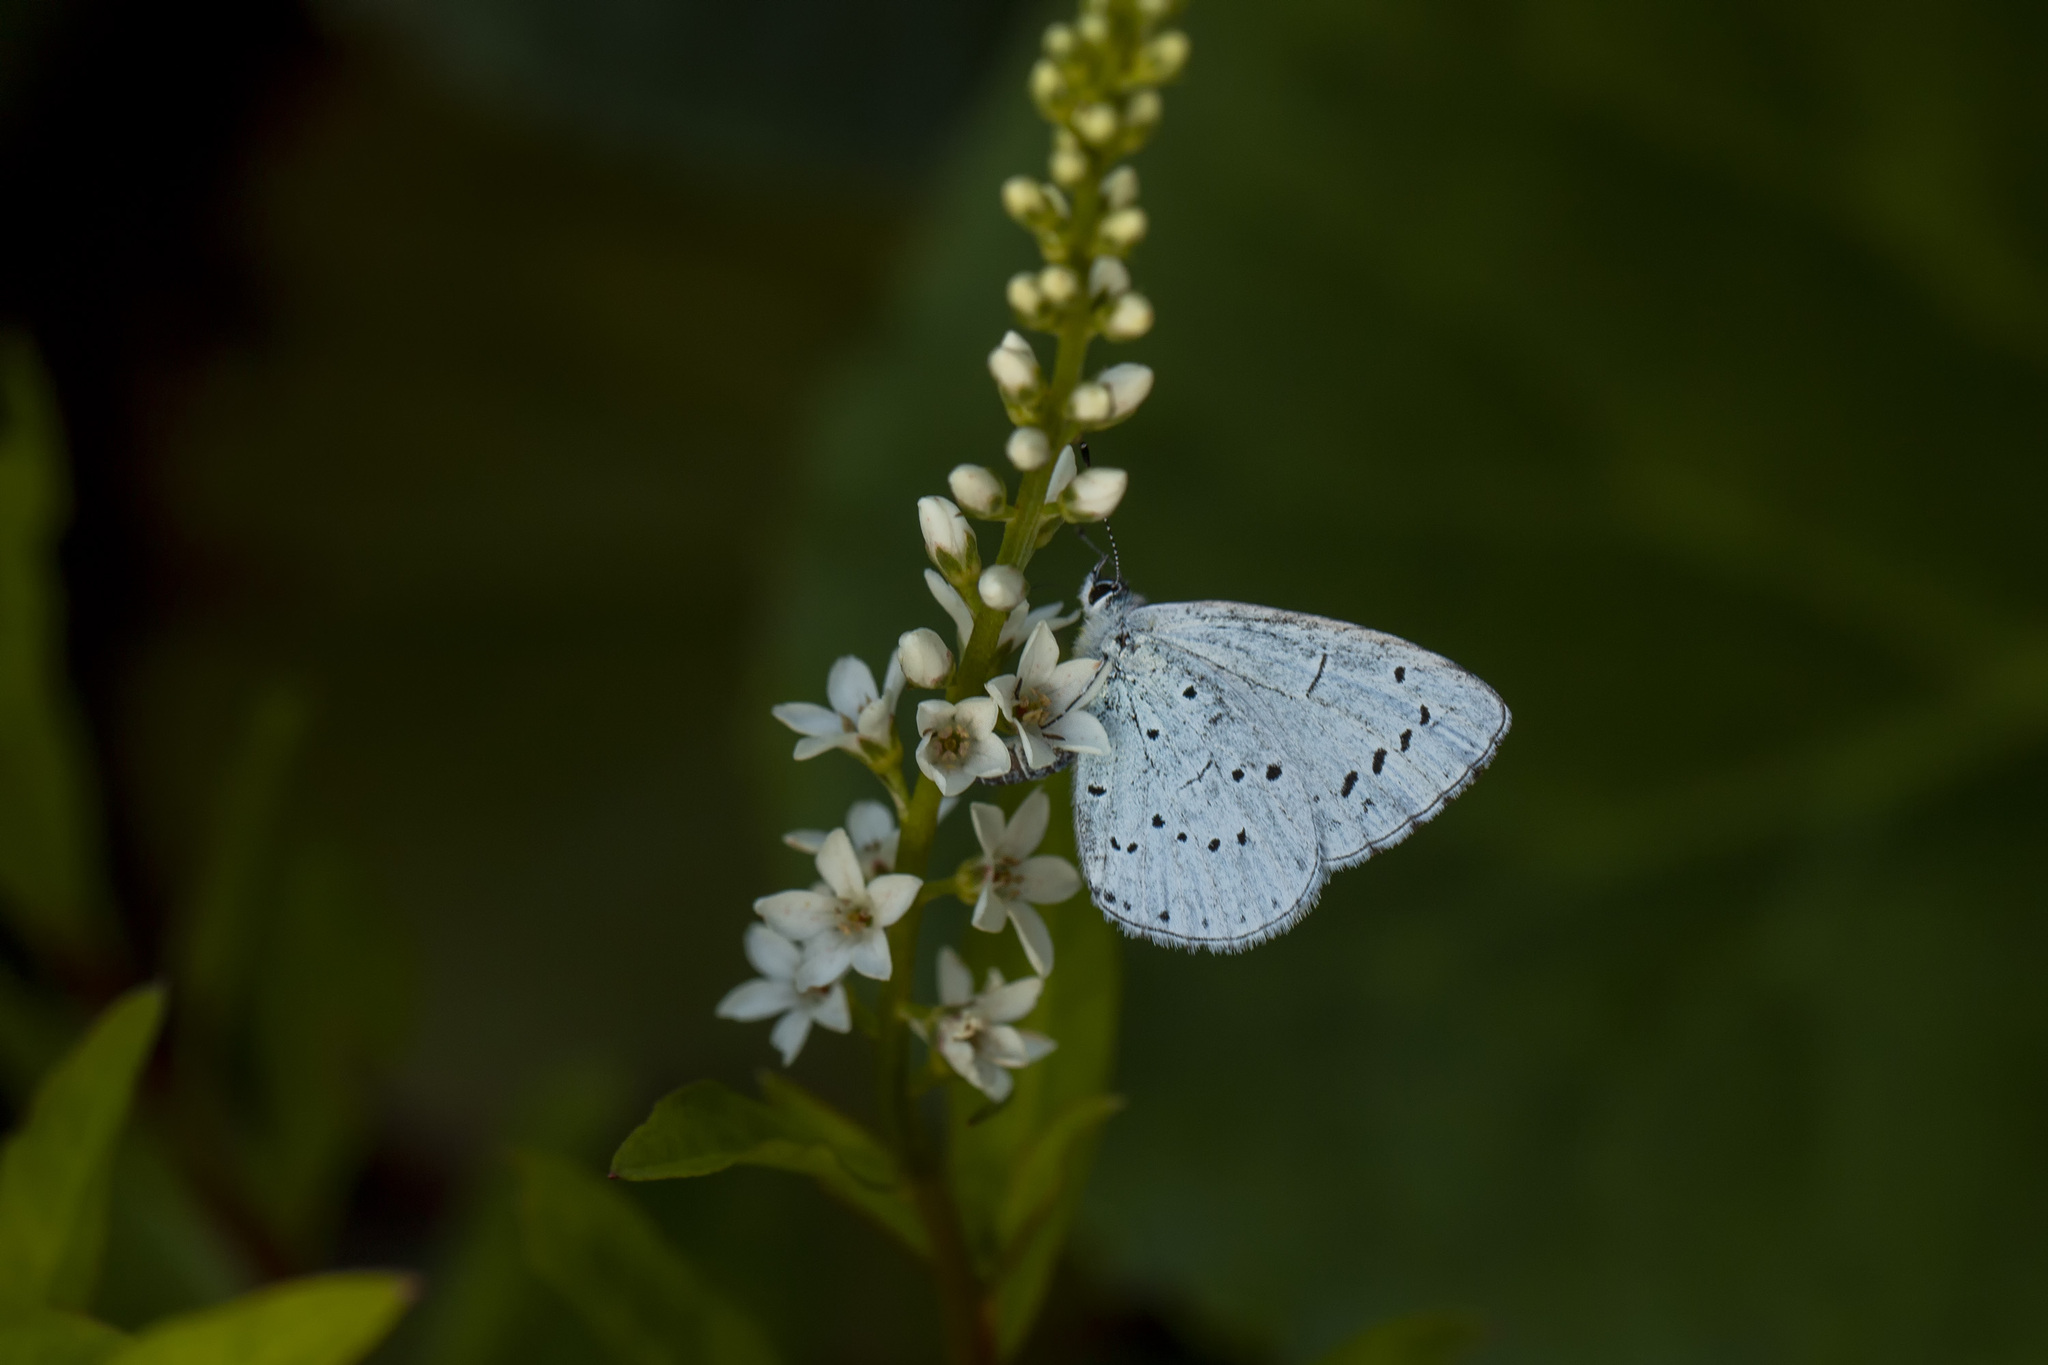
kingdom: Animalia
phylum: Arthropoda
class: Insecta
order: Lepidoptera
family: Lycaenidae
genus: Celastrina
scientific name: Celastrina argiolus
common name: Holly blue
